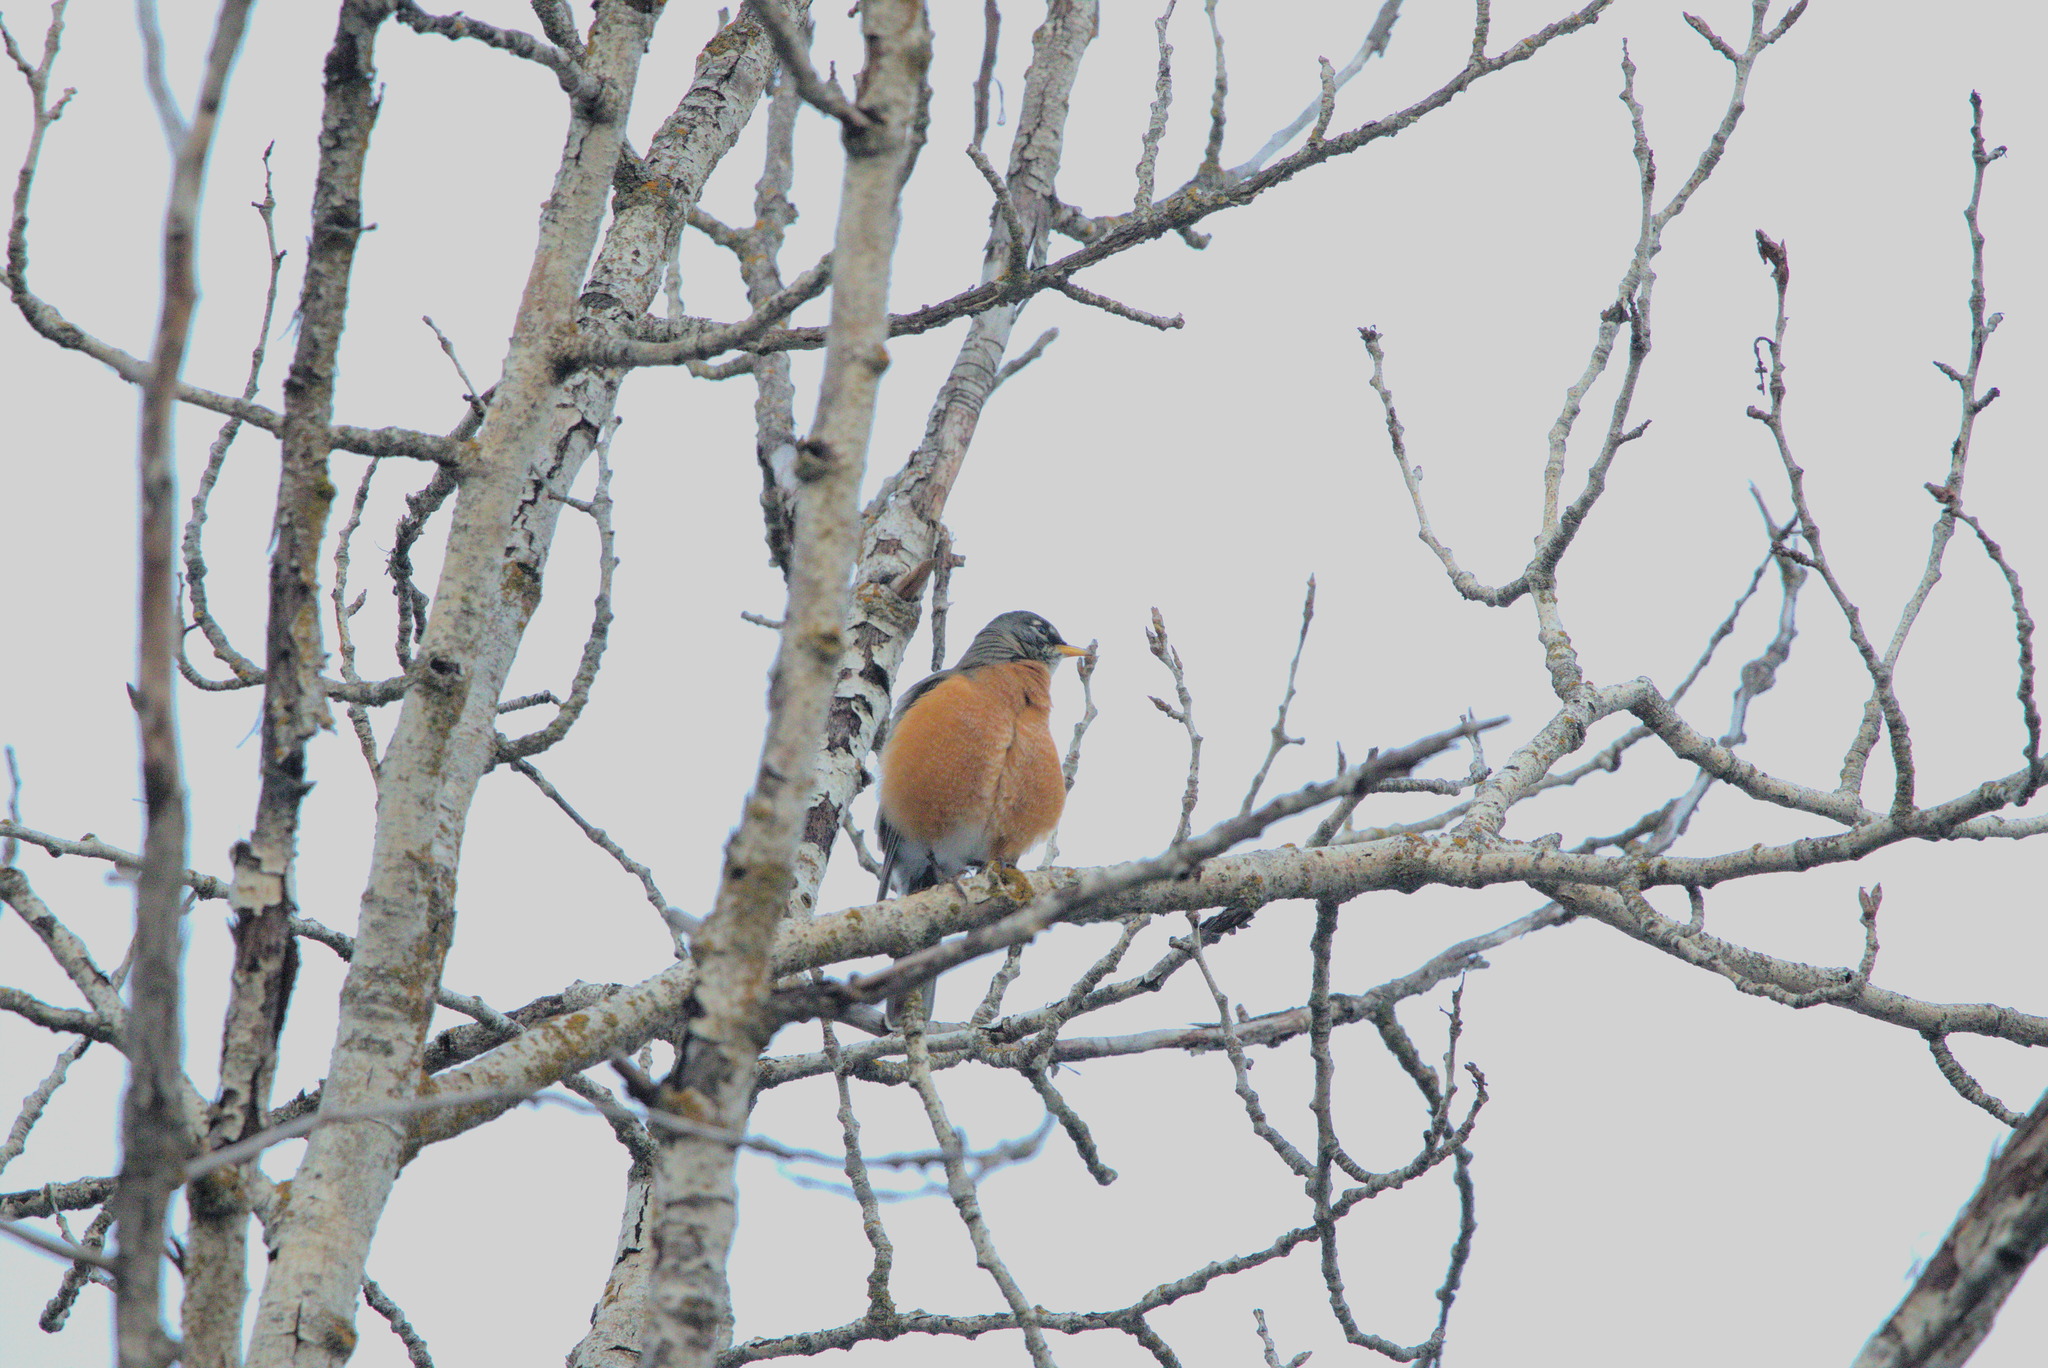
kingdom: Animalia
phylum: Chordata
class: Aves
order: Passeriformes
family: Turdidae
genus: Turdus
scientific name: Turdus migratorius
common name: American robin
